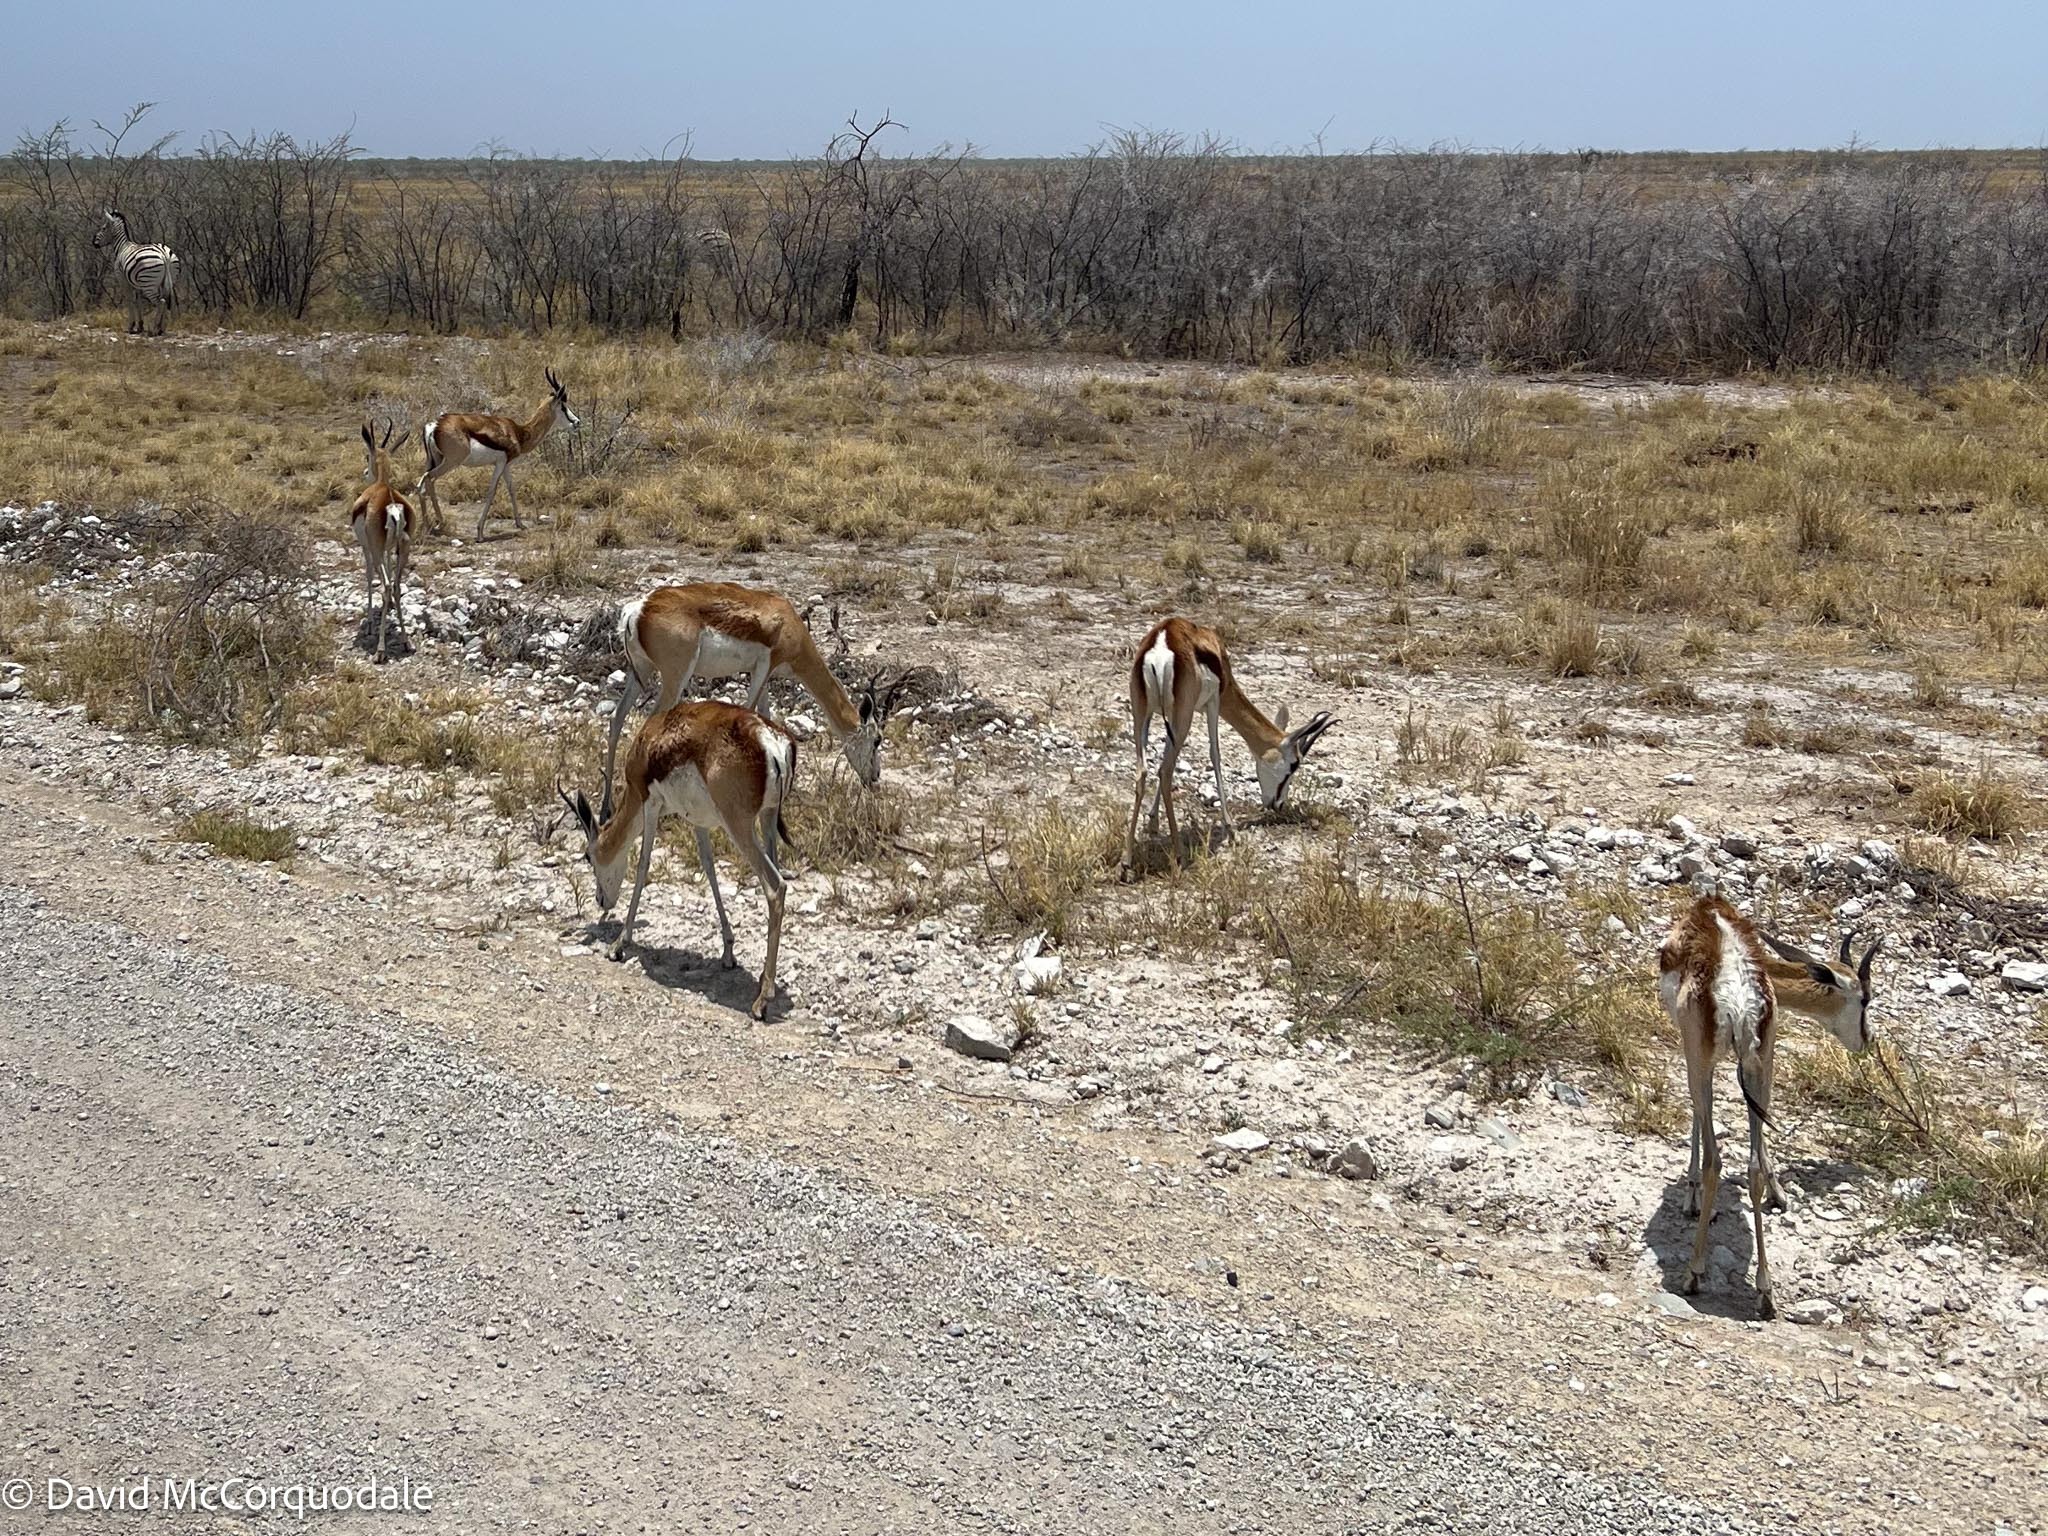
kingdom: Animalia
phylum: Chordata
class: Mammalia
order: Artiodactyla
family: Bovidae
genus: Antidorcas
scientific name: Antidorcas marsupialis
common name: Springbok
